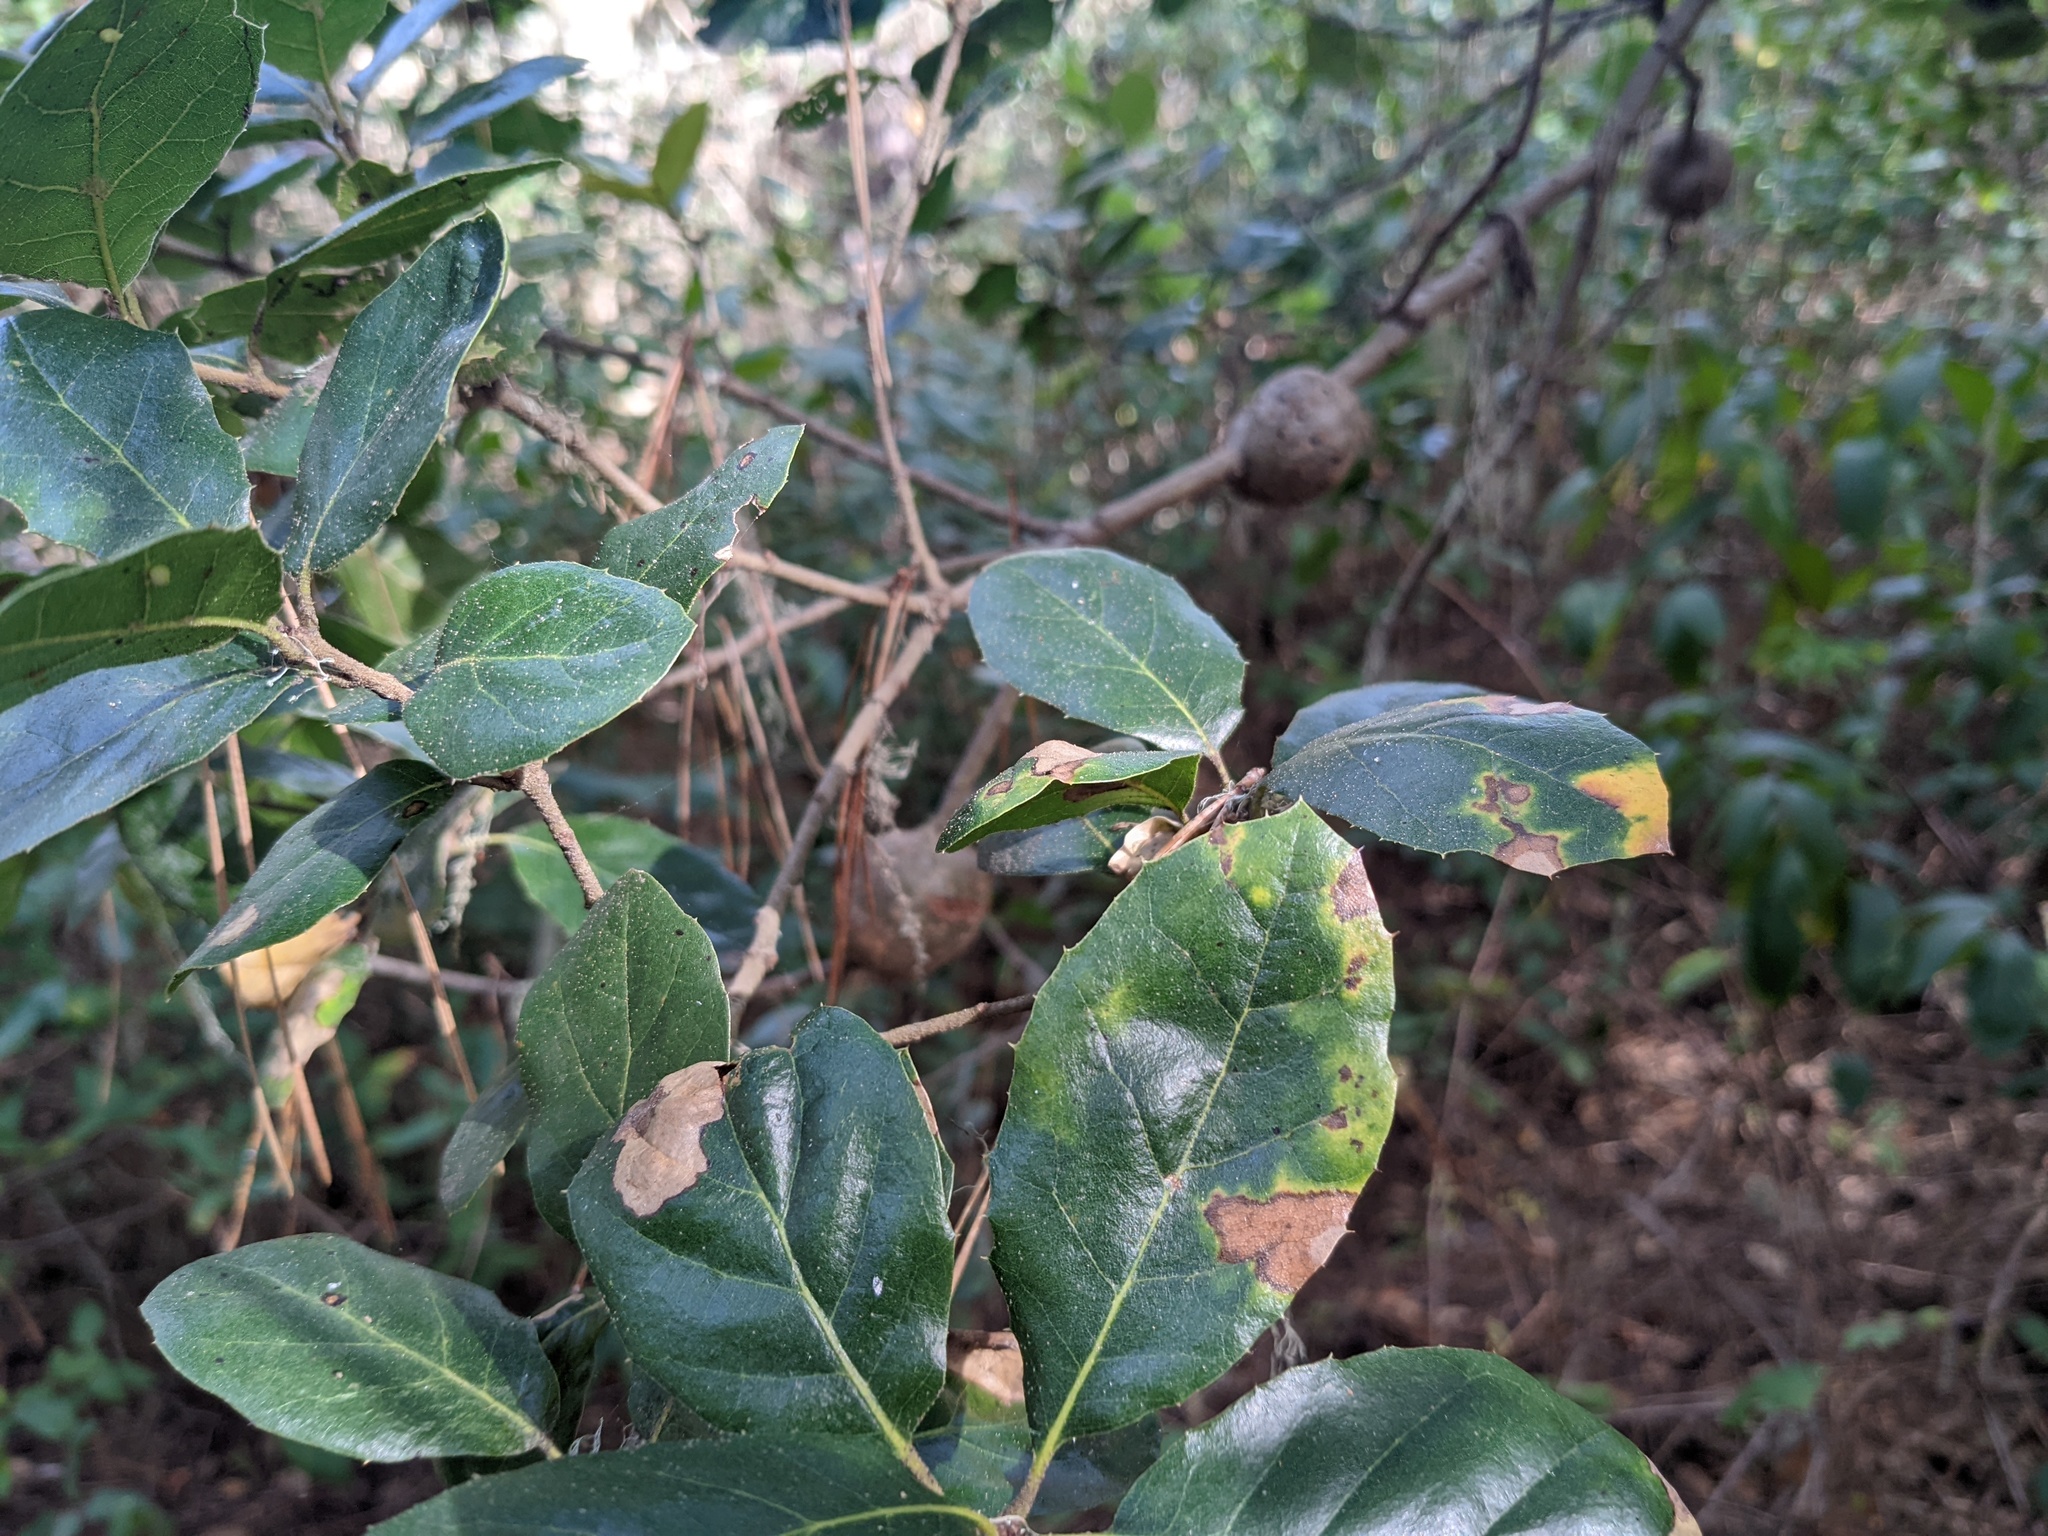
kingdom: Animalia
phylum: Arthropoda
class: Insecta
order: Hymenoptera
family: Cynipidae
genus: Callirhytis
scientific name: Callirhytis
